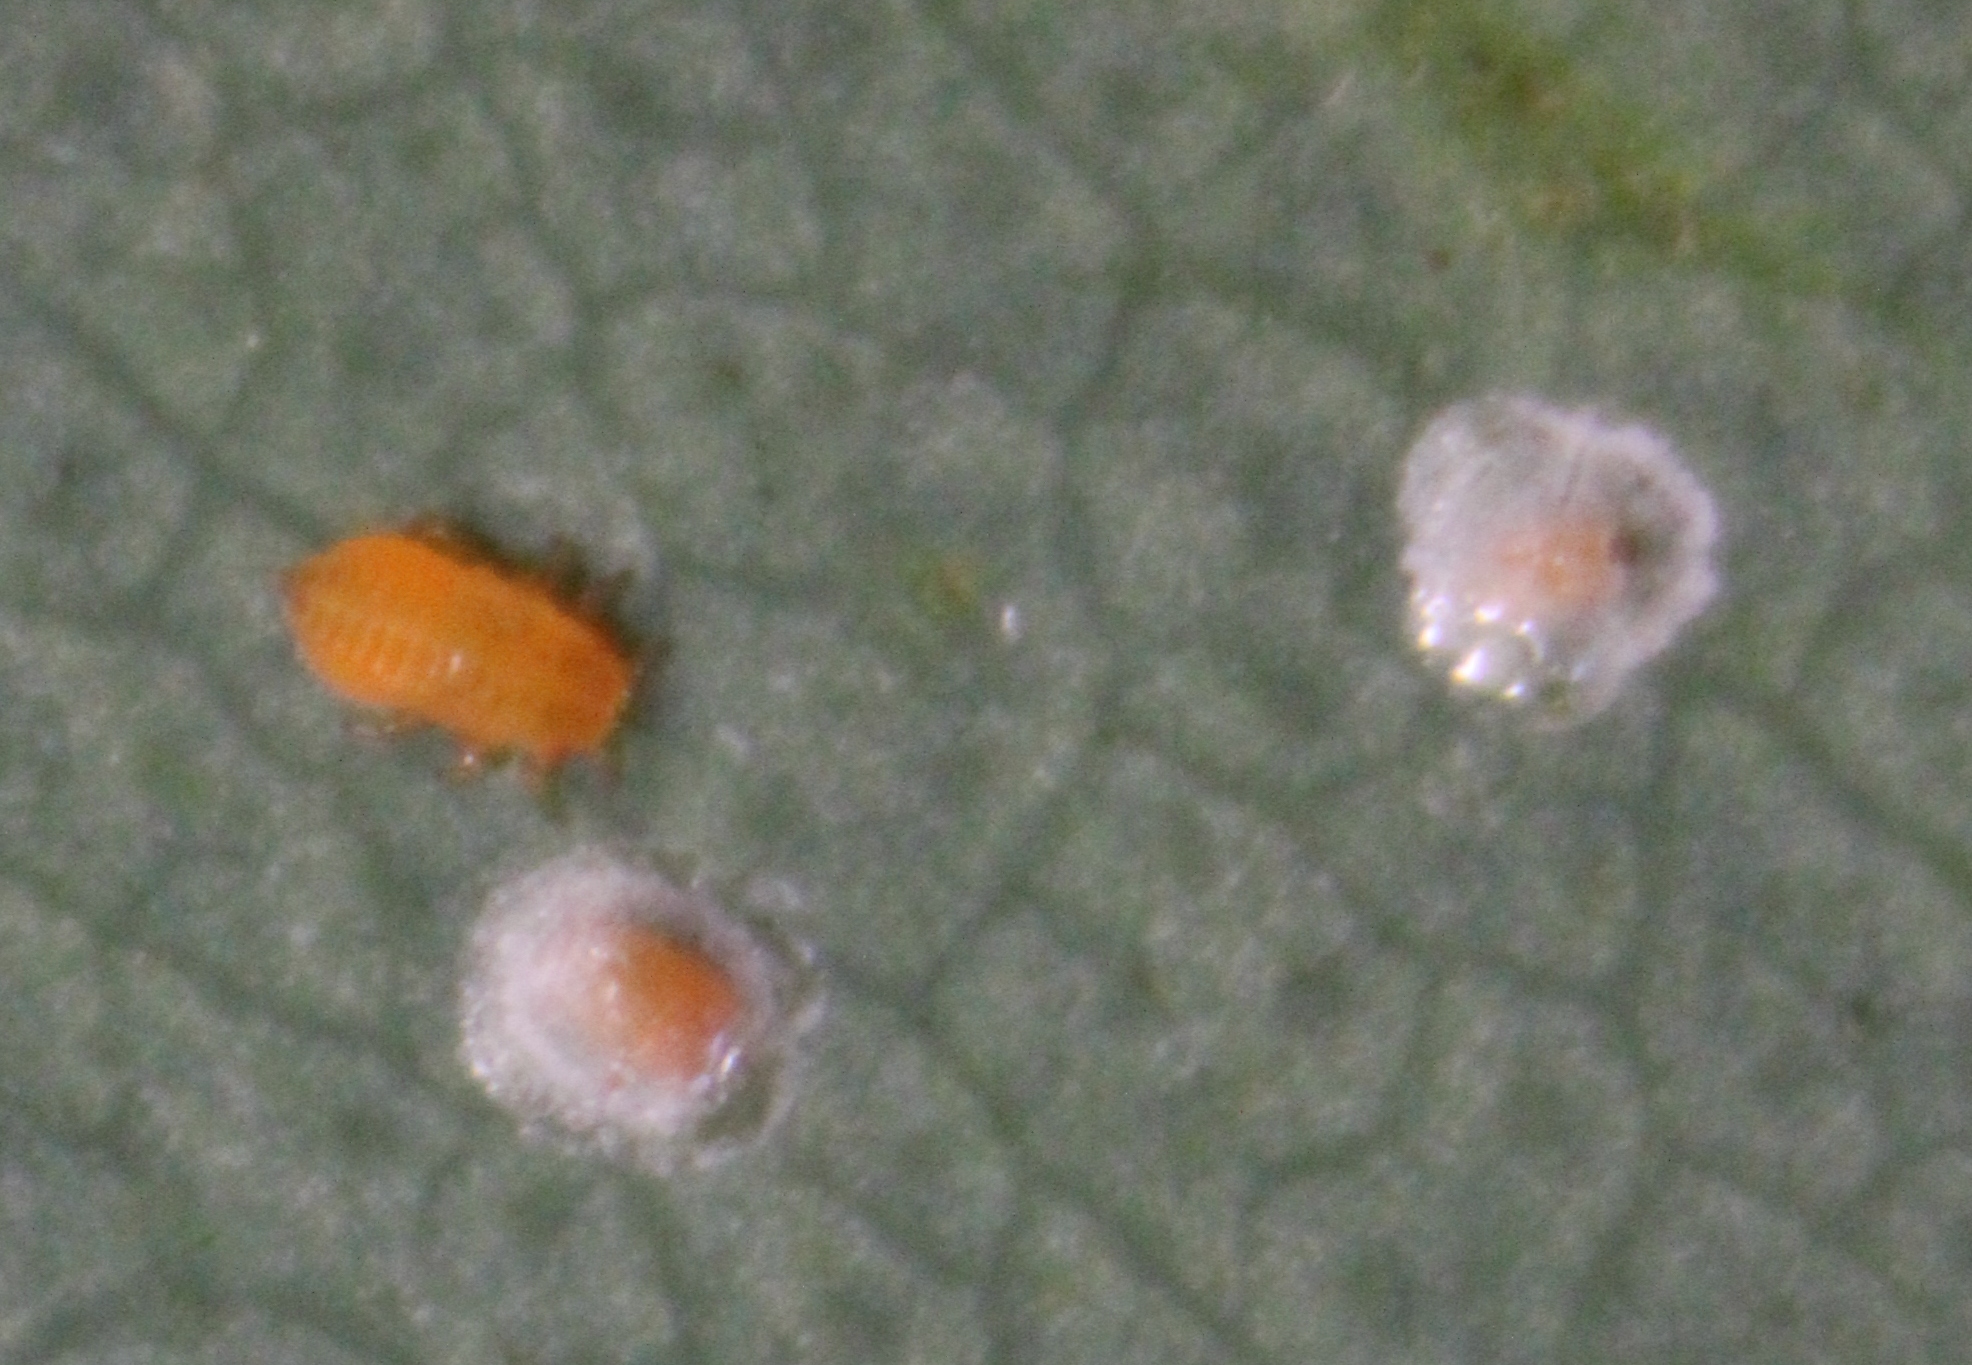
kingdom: Animalia
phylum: Arthropoda
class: Insecta
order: Hemiptera
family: Aphalaridae
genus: Glycaspis
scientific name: Glycaspis brimblecombei
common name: Red gum lerp psyllid
